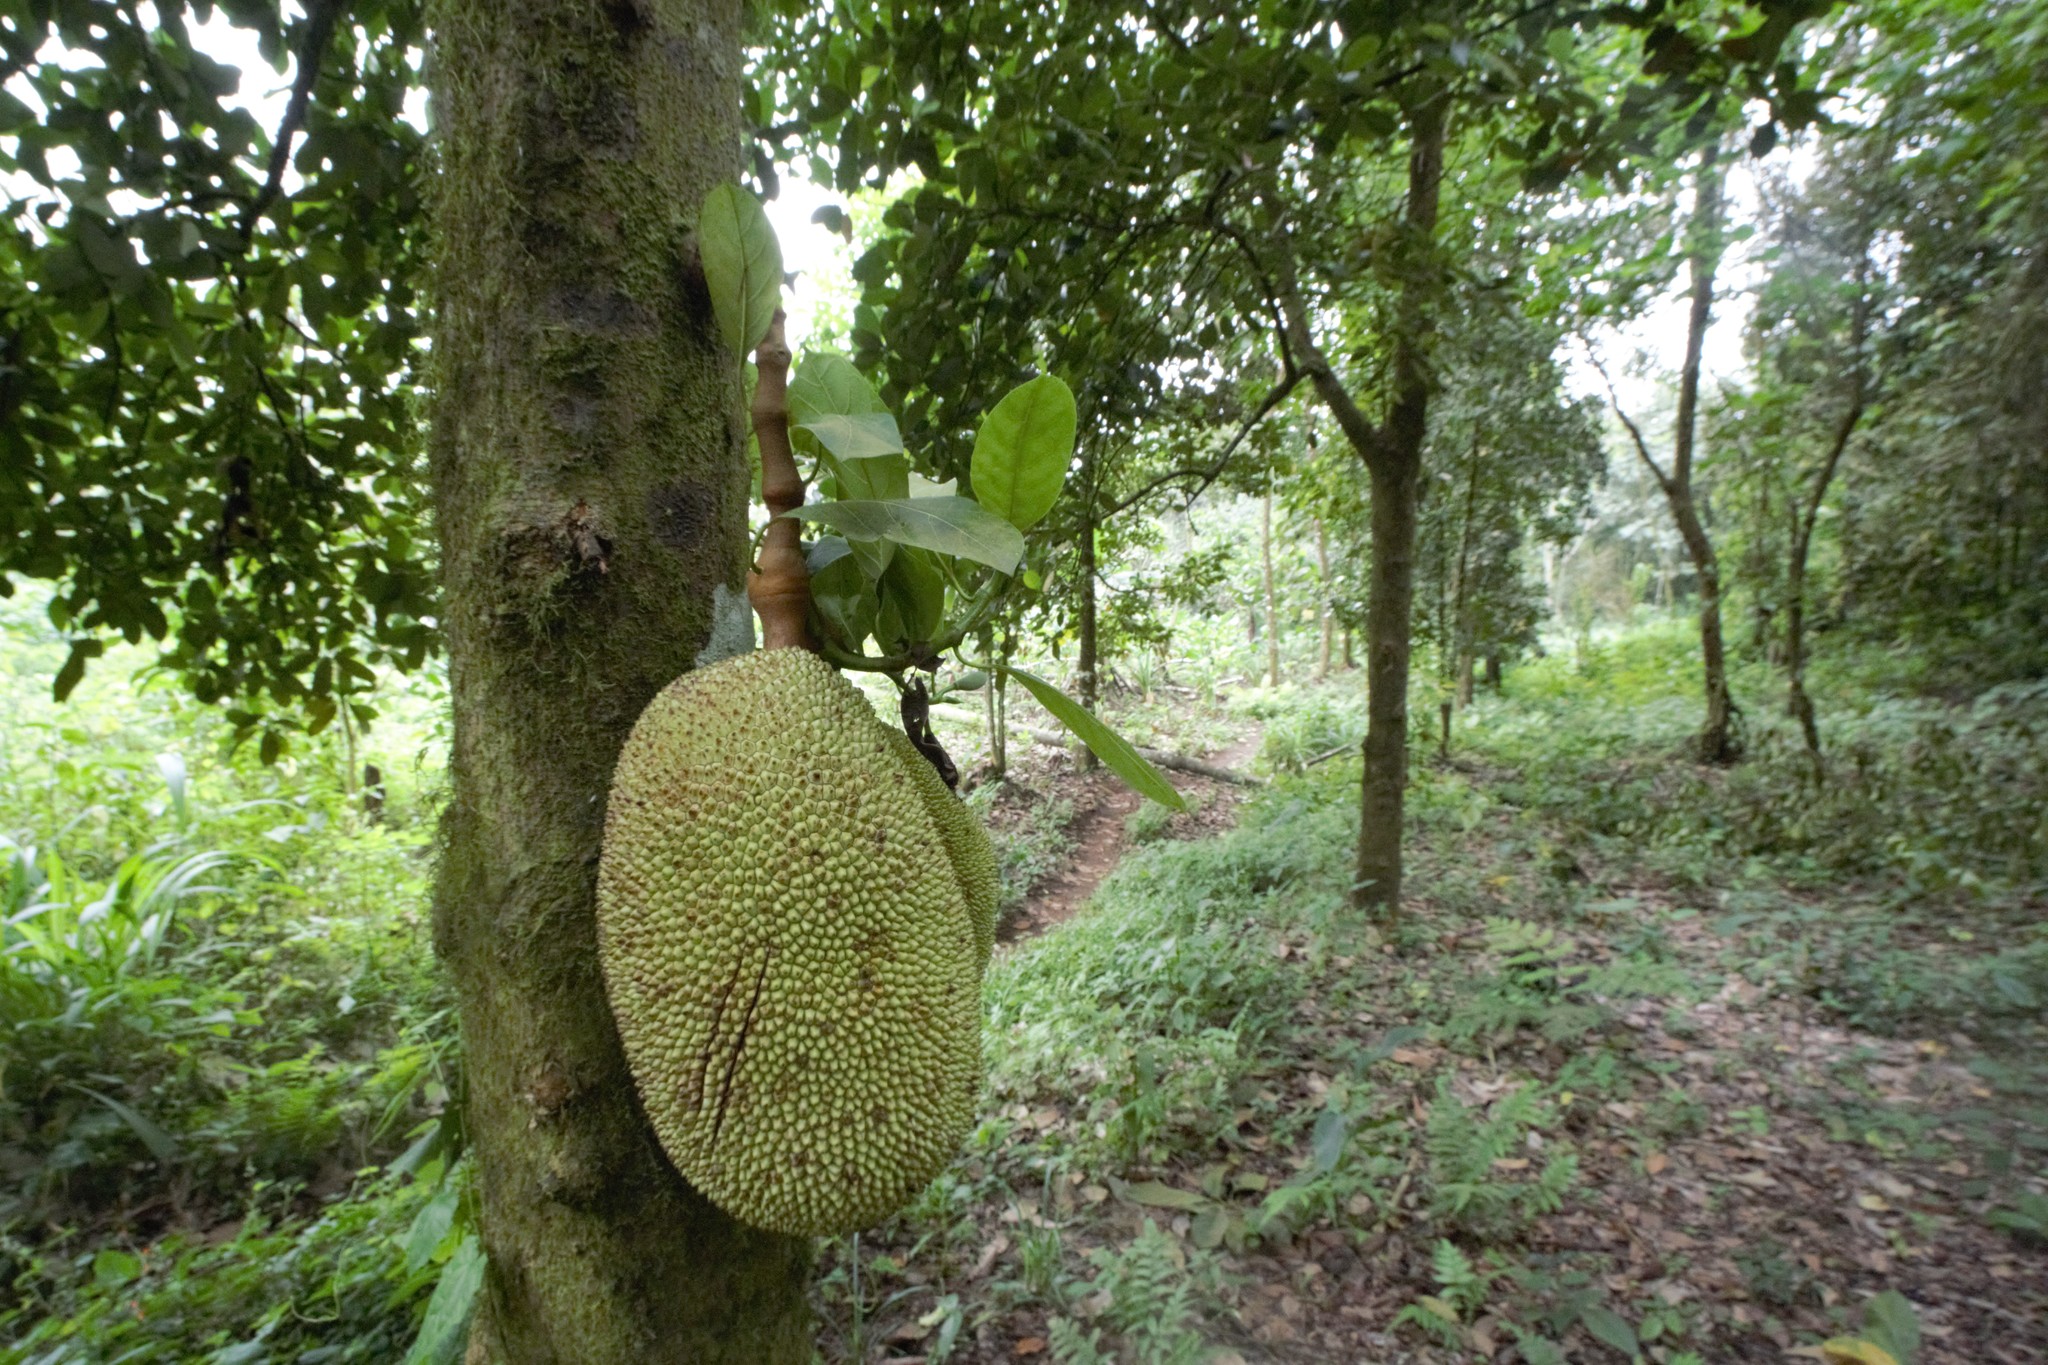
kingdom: Plantae
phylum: Tracheophyta
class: Magnoliopsida
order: Rosales
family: Moraceae
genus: Artocarpus
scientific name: Artocarpus heterophyllus
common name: Jackfruit
